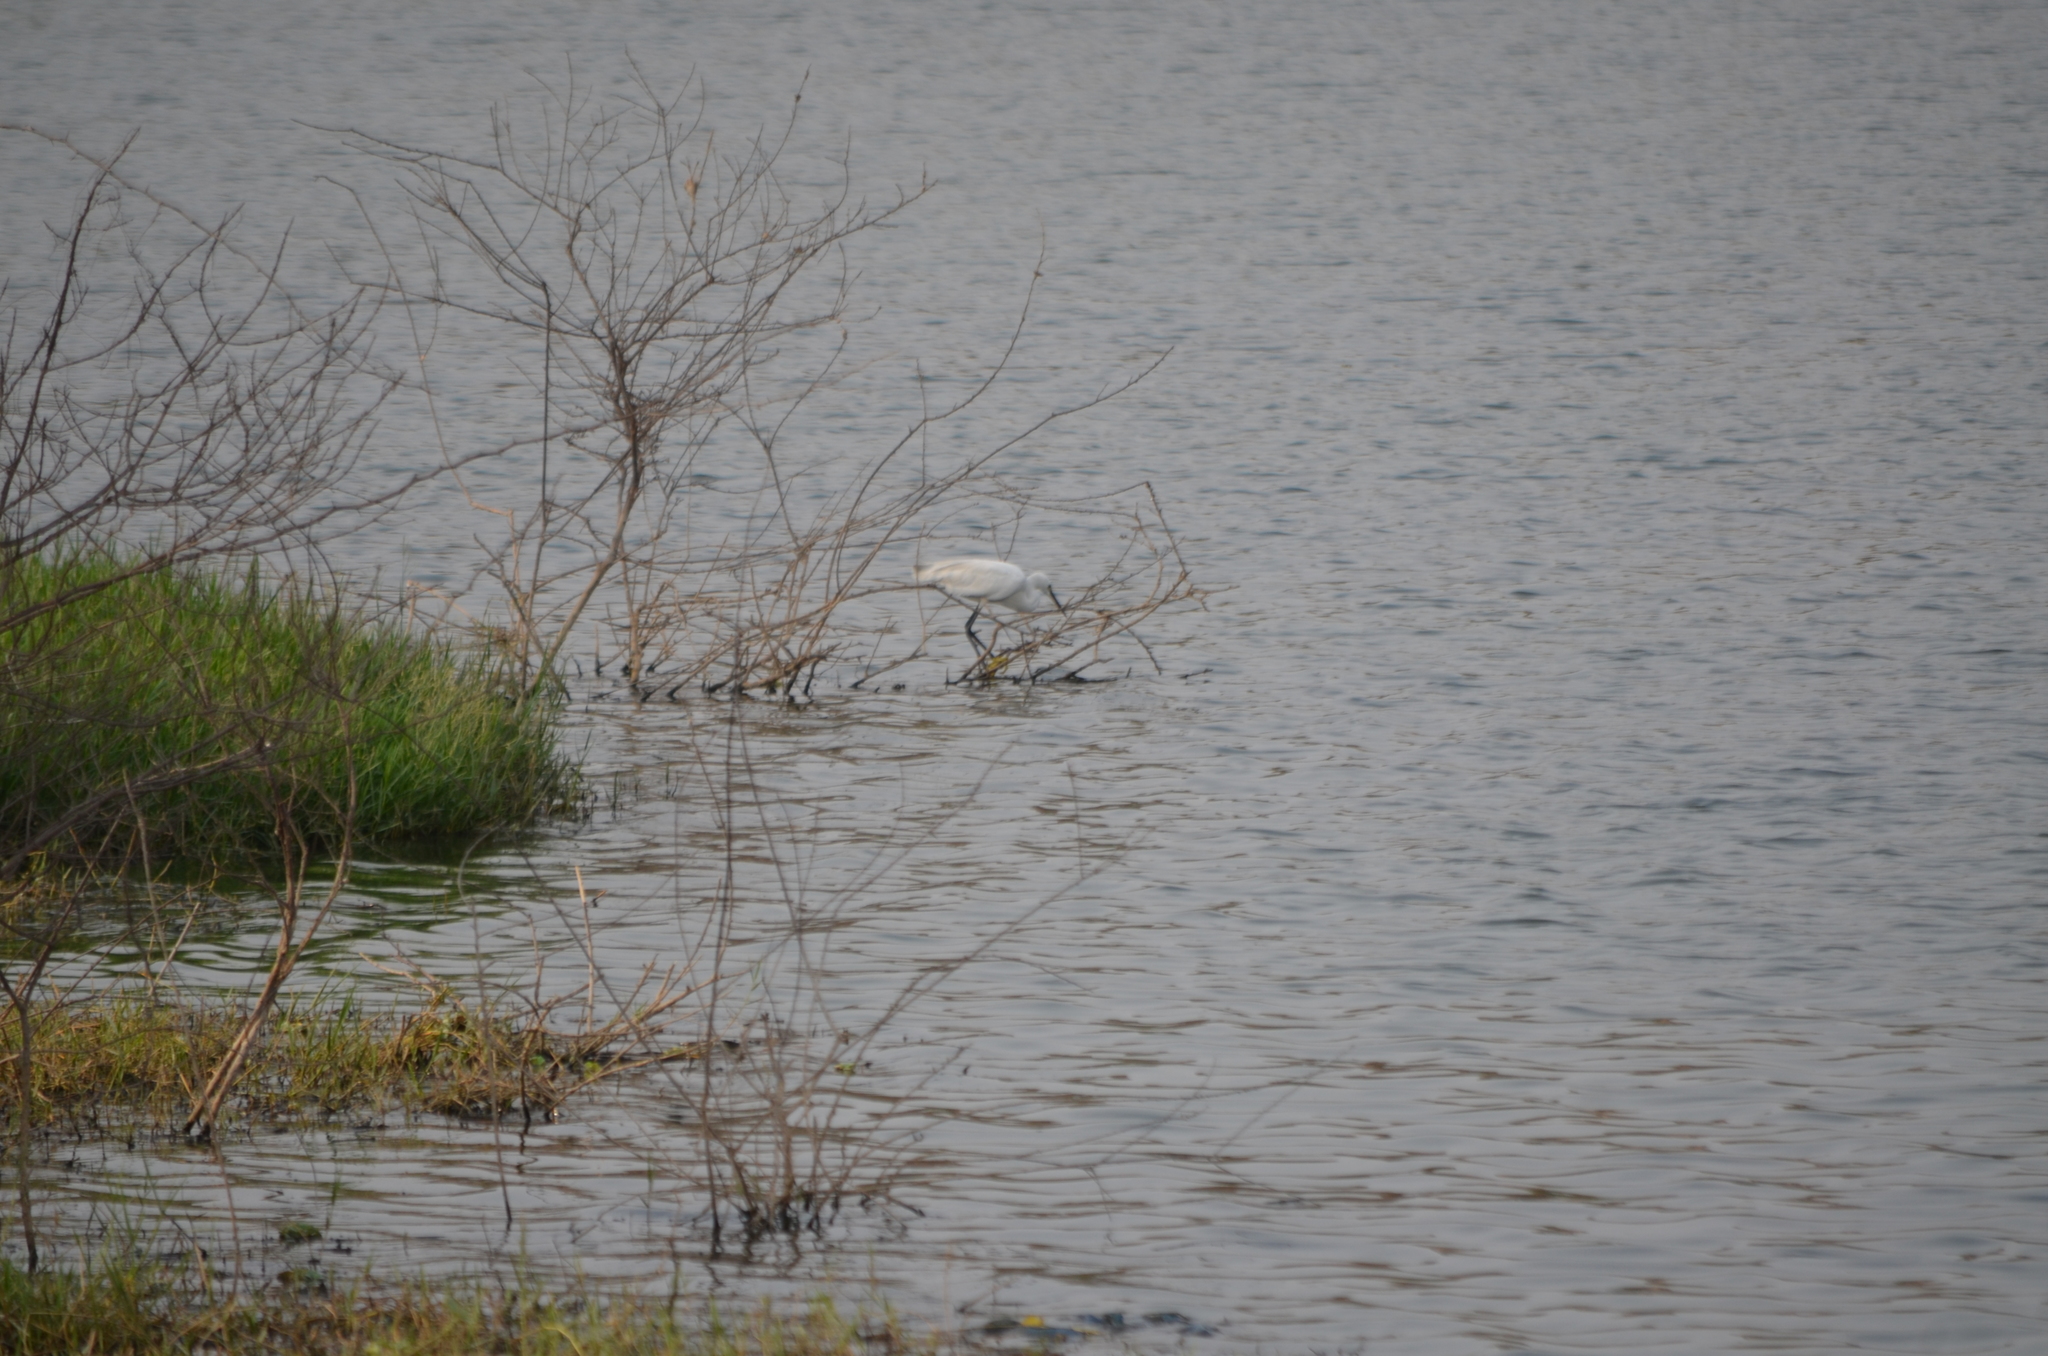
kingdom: Animalia
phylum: Chordata
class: Aves
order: Pelecaniformes
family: Ardeidae
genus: Egretta
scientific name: Egretta garzetta
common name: Little egret
